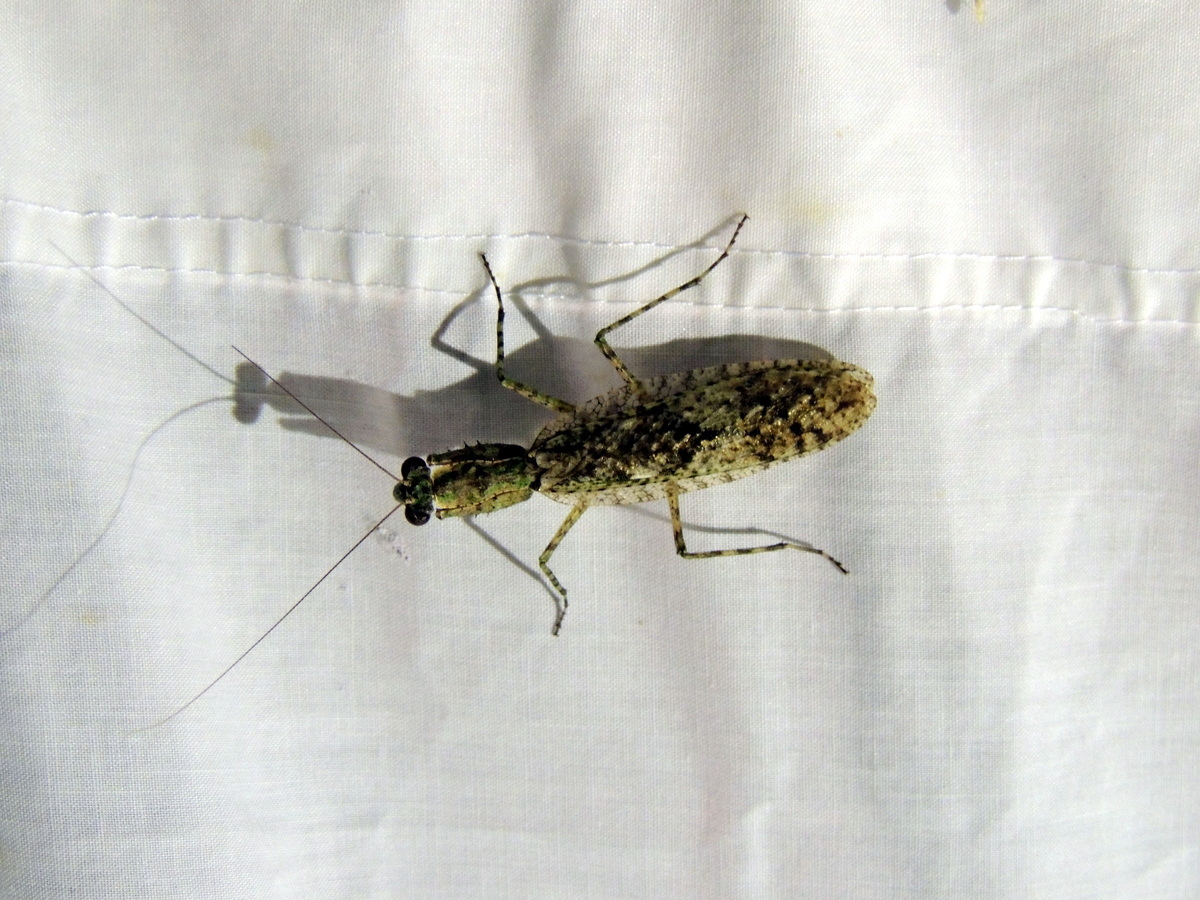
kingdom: Animalia
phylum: Arthropoda
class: Insecta
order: Mantodea
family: Epaphroditidae
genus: Gonatista
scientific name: Gonatista grisea
